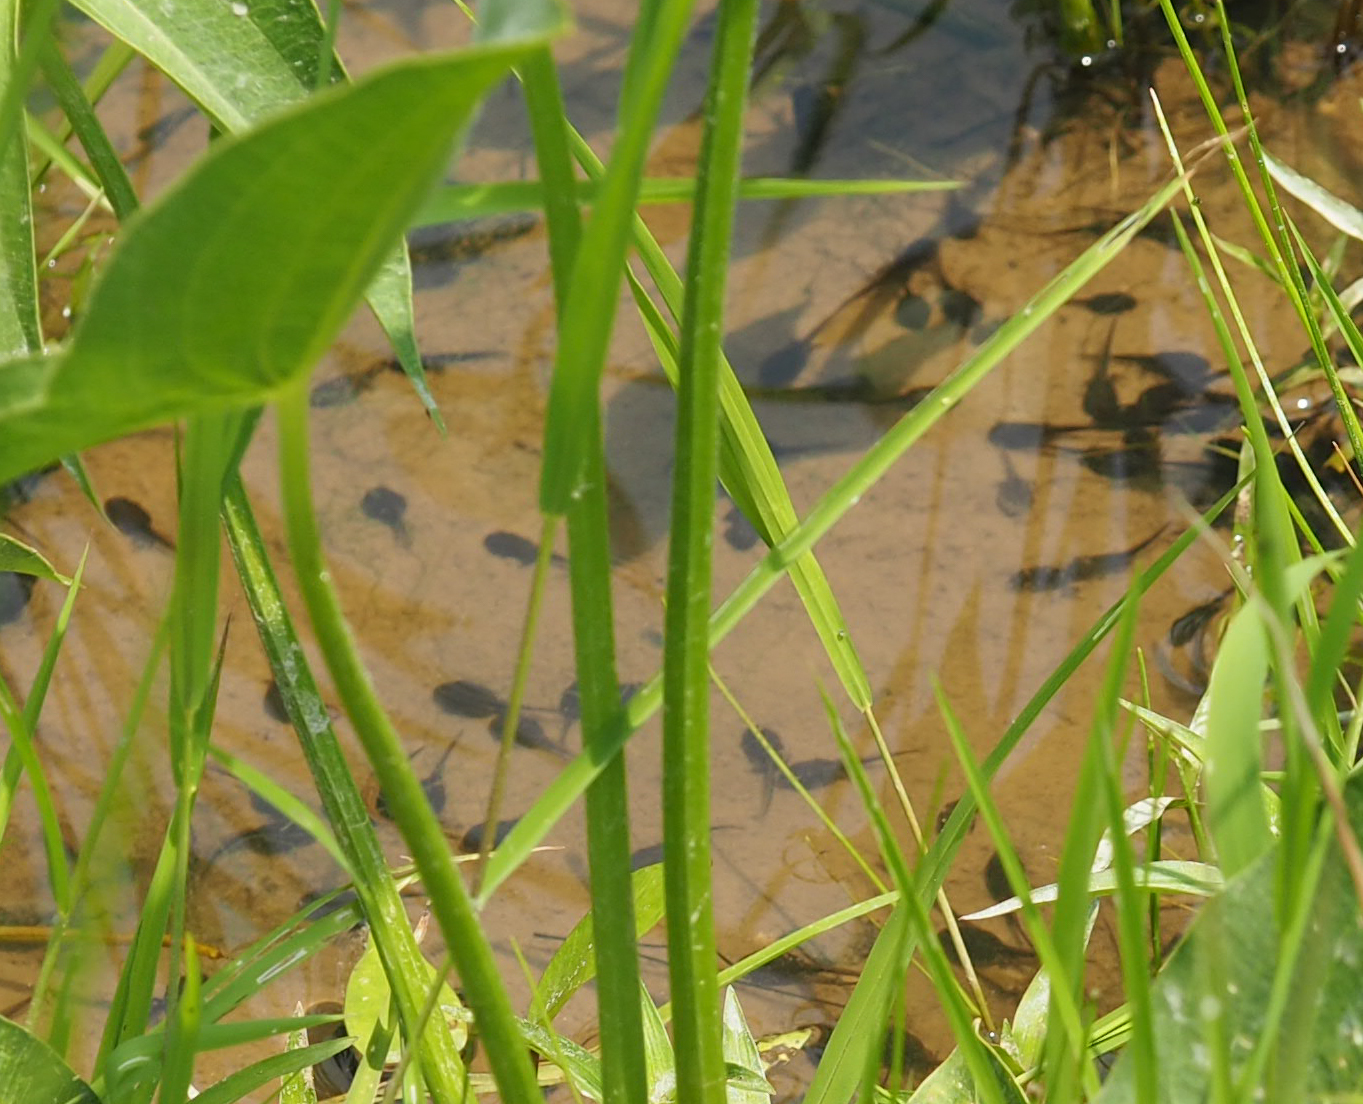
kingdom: Animalia
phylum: Chordata
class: Amphibia
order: Anura
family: Bufonidae
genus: Anaxyrus
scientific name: Anaxyrus americanus
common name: American toad
